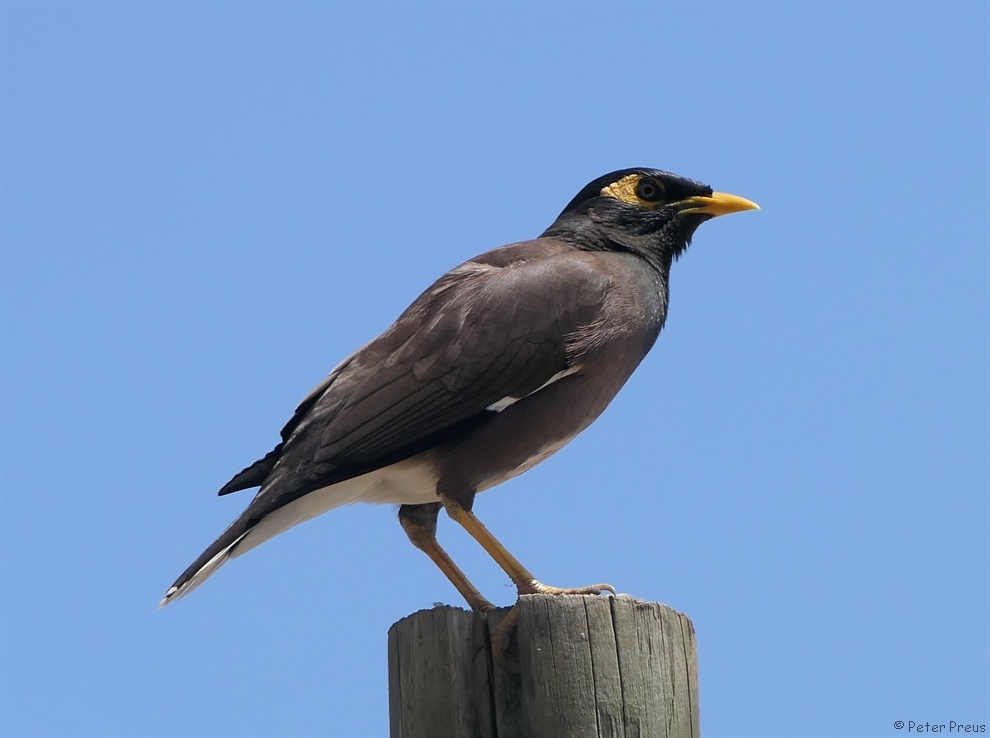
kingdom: Animalia
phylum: Chordata
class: Aves
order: Passeriformes
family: Sturnidae
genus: Acridotheres
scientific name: Acridotheres tristis
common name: Common myna
